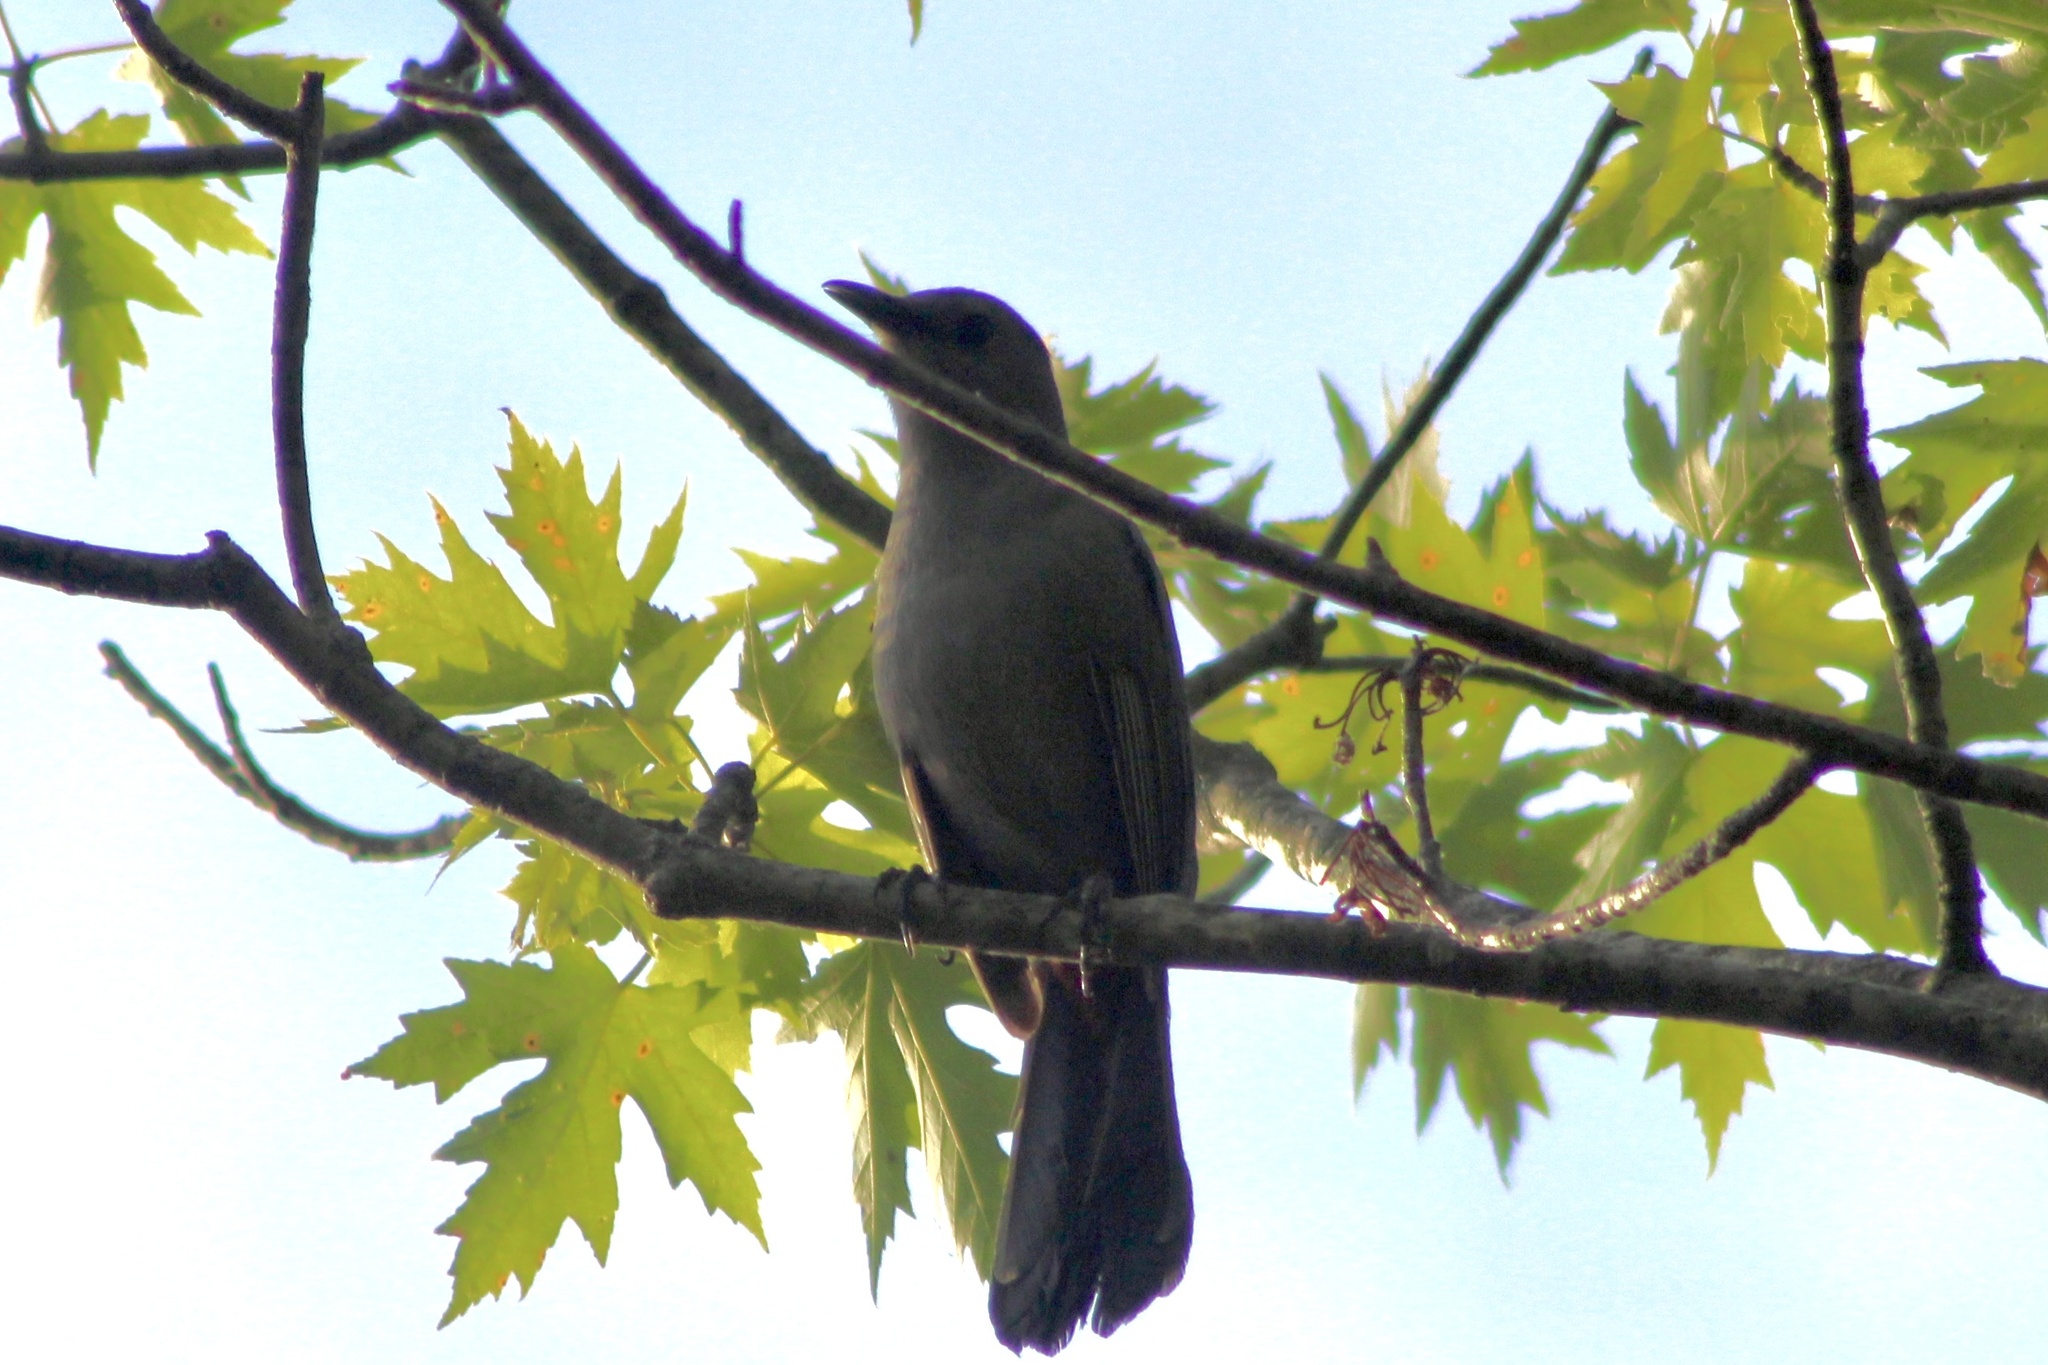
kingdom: Animalia
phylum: Chordata
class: Aves
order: Passeriformes
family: Mimidae
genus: Dumetella
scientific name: Dumetella carolinensis
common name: Gray catbird
